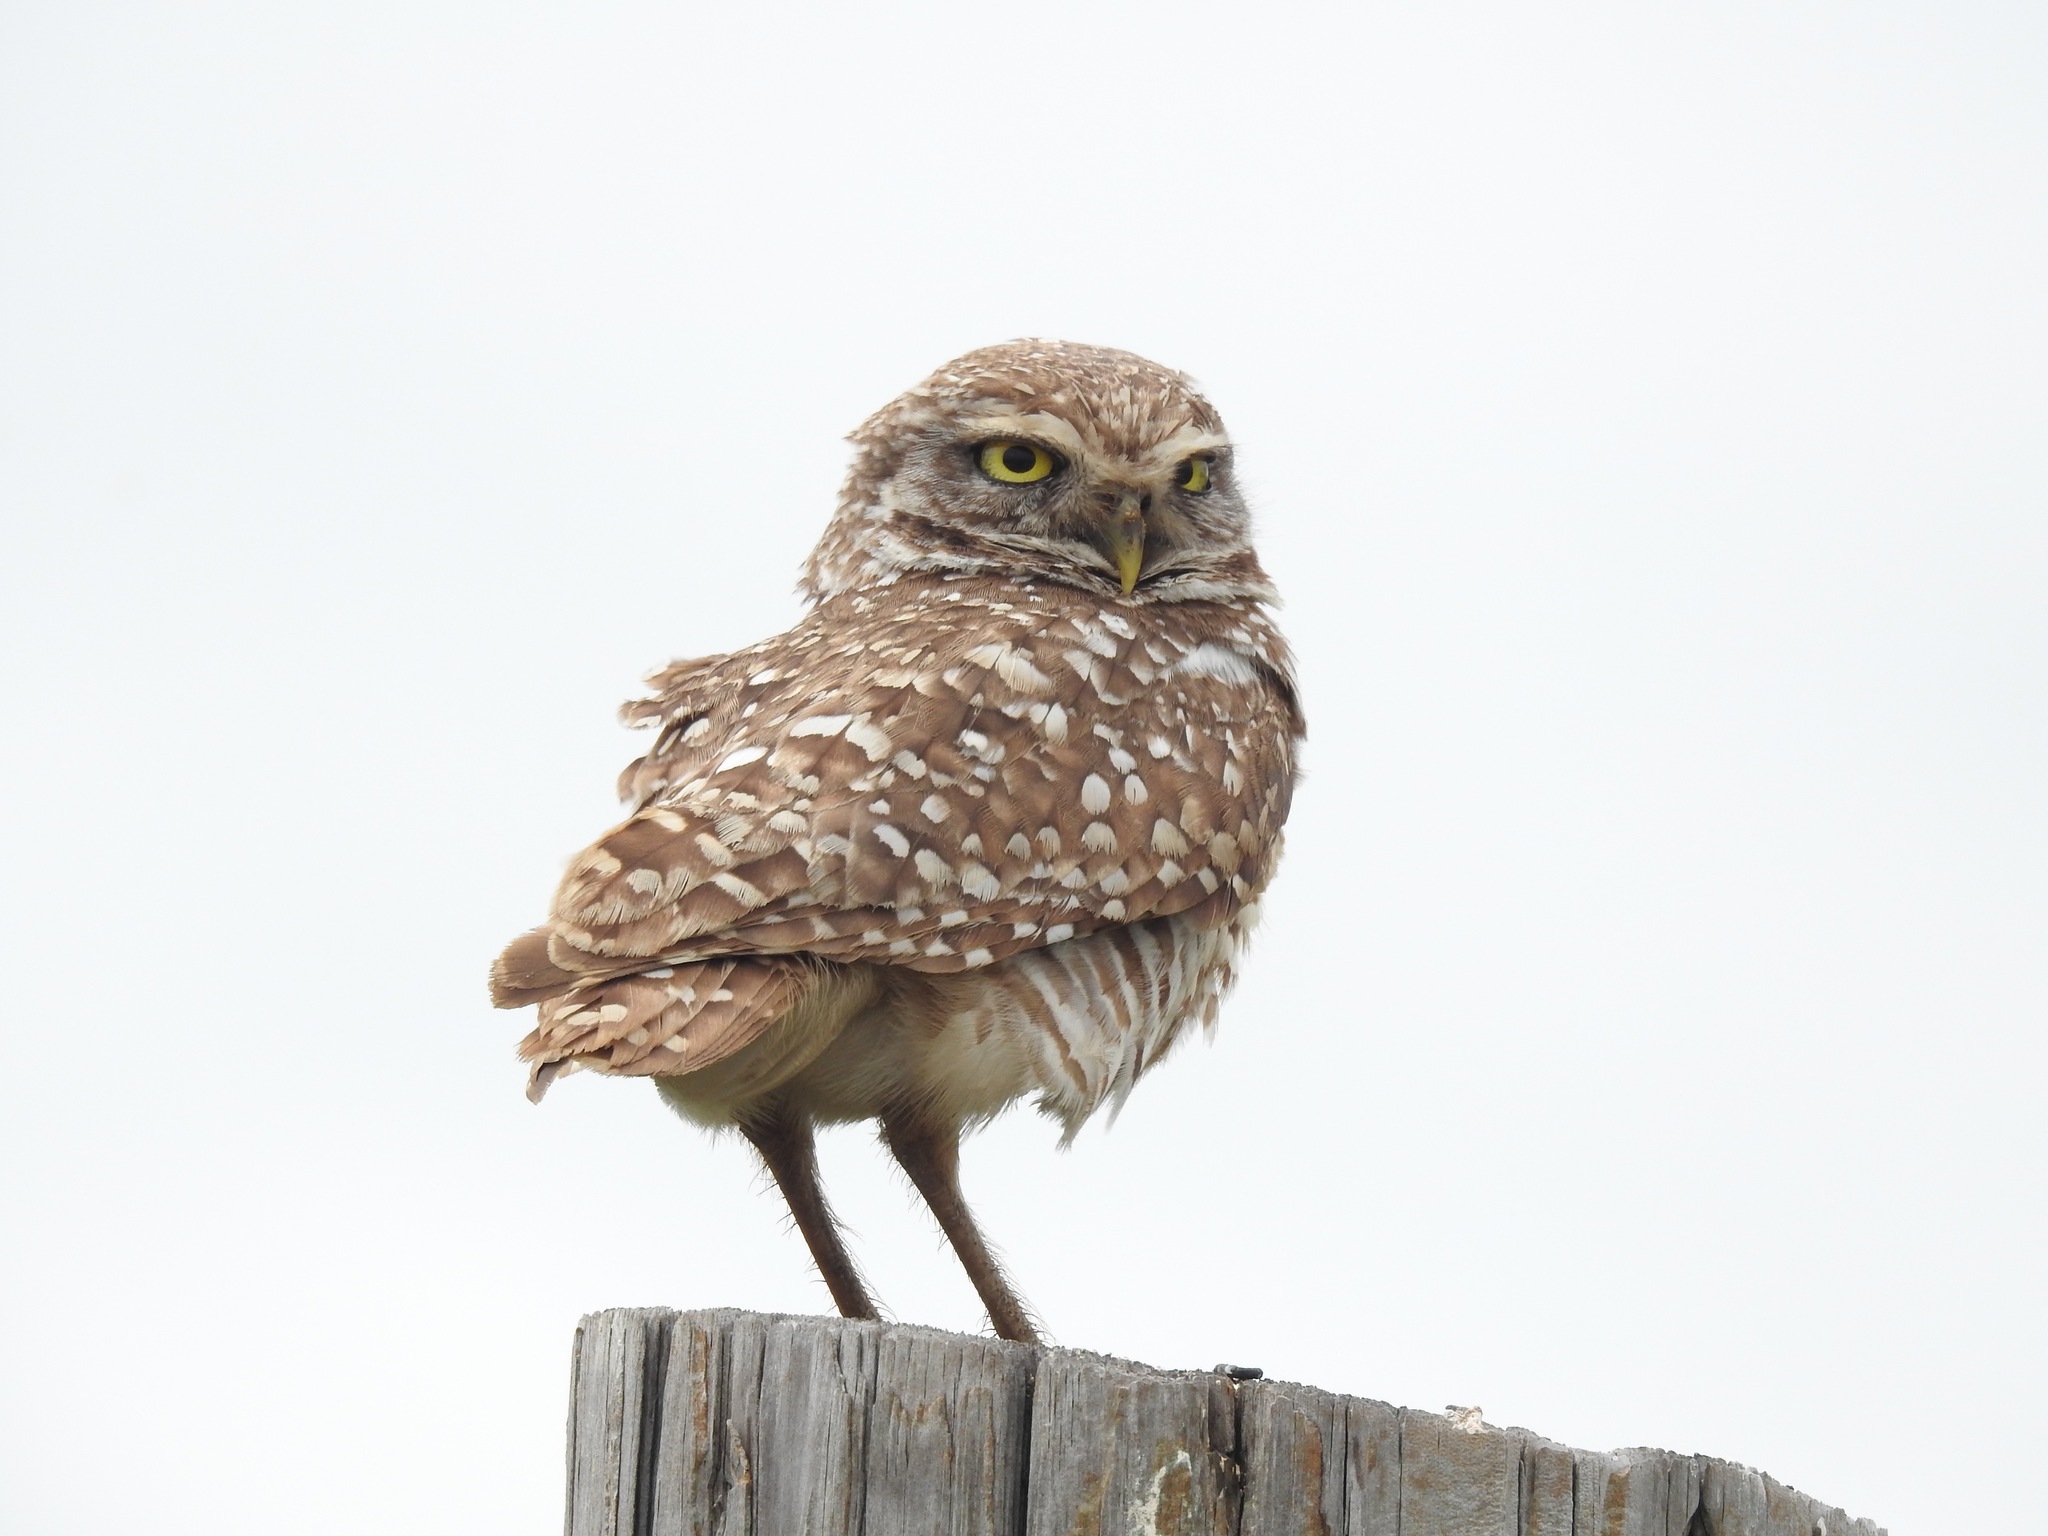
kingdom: Animalia
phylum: Chordata
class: Aves
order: Strigiformes
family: Strigidae
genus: Athene
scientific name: Athene cunicularia
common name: Burrowing owl
